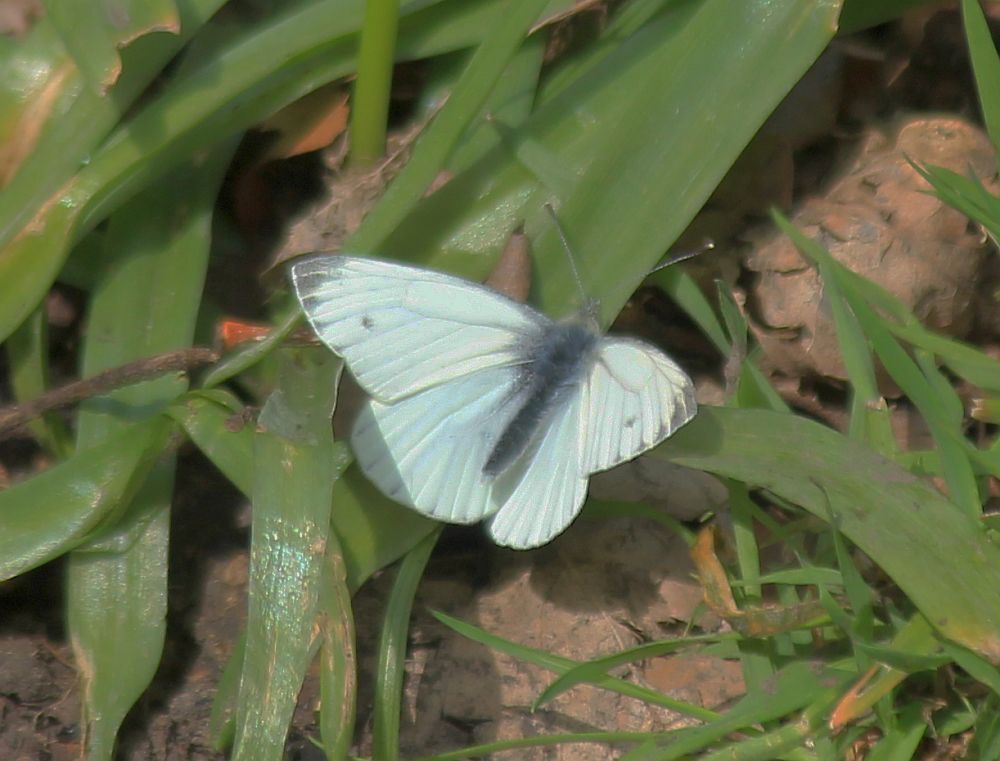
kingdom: Animalia
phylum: Arthropoda
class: Insecta
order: Lepidoptera
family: Pieridae
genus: Pieris
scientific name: Pieris napi
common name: Green-veined white
